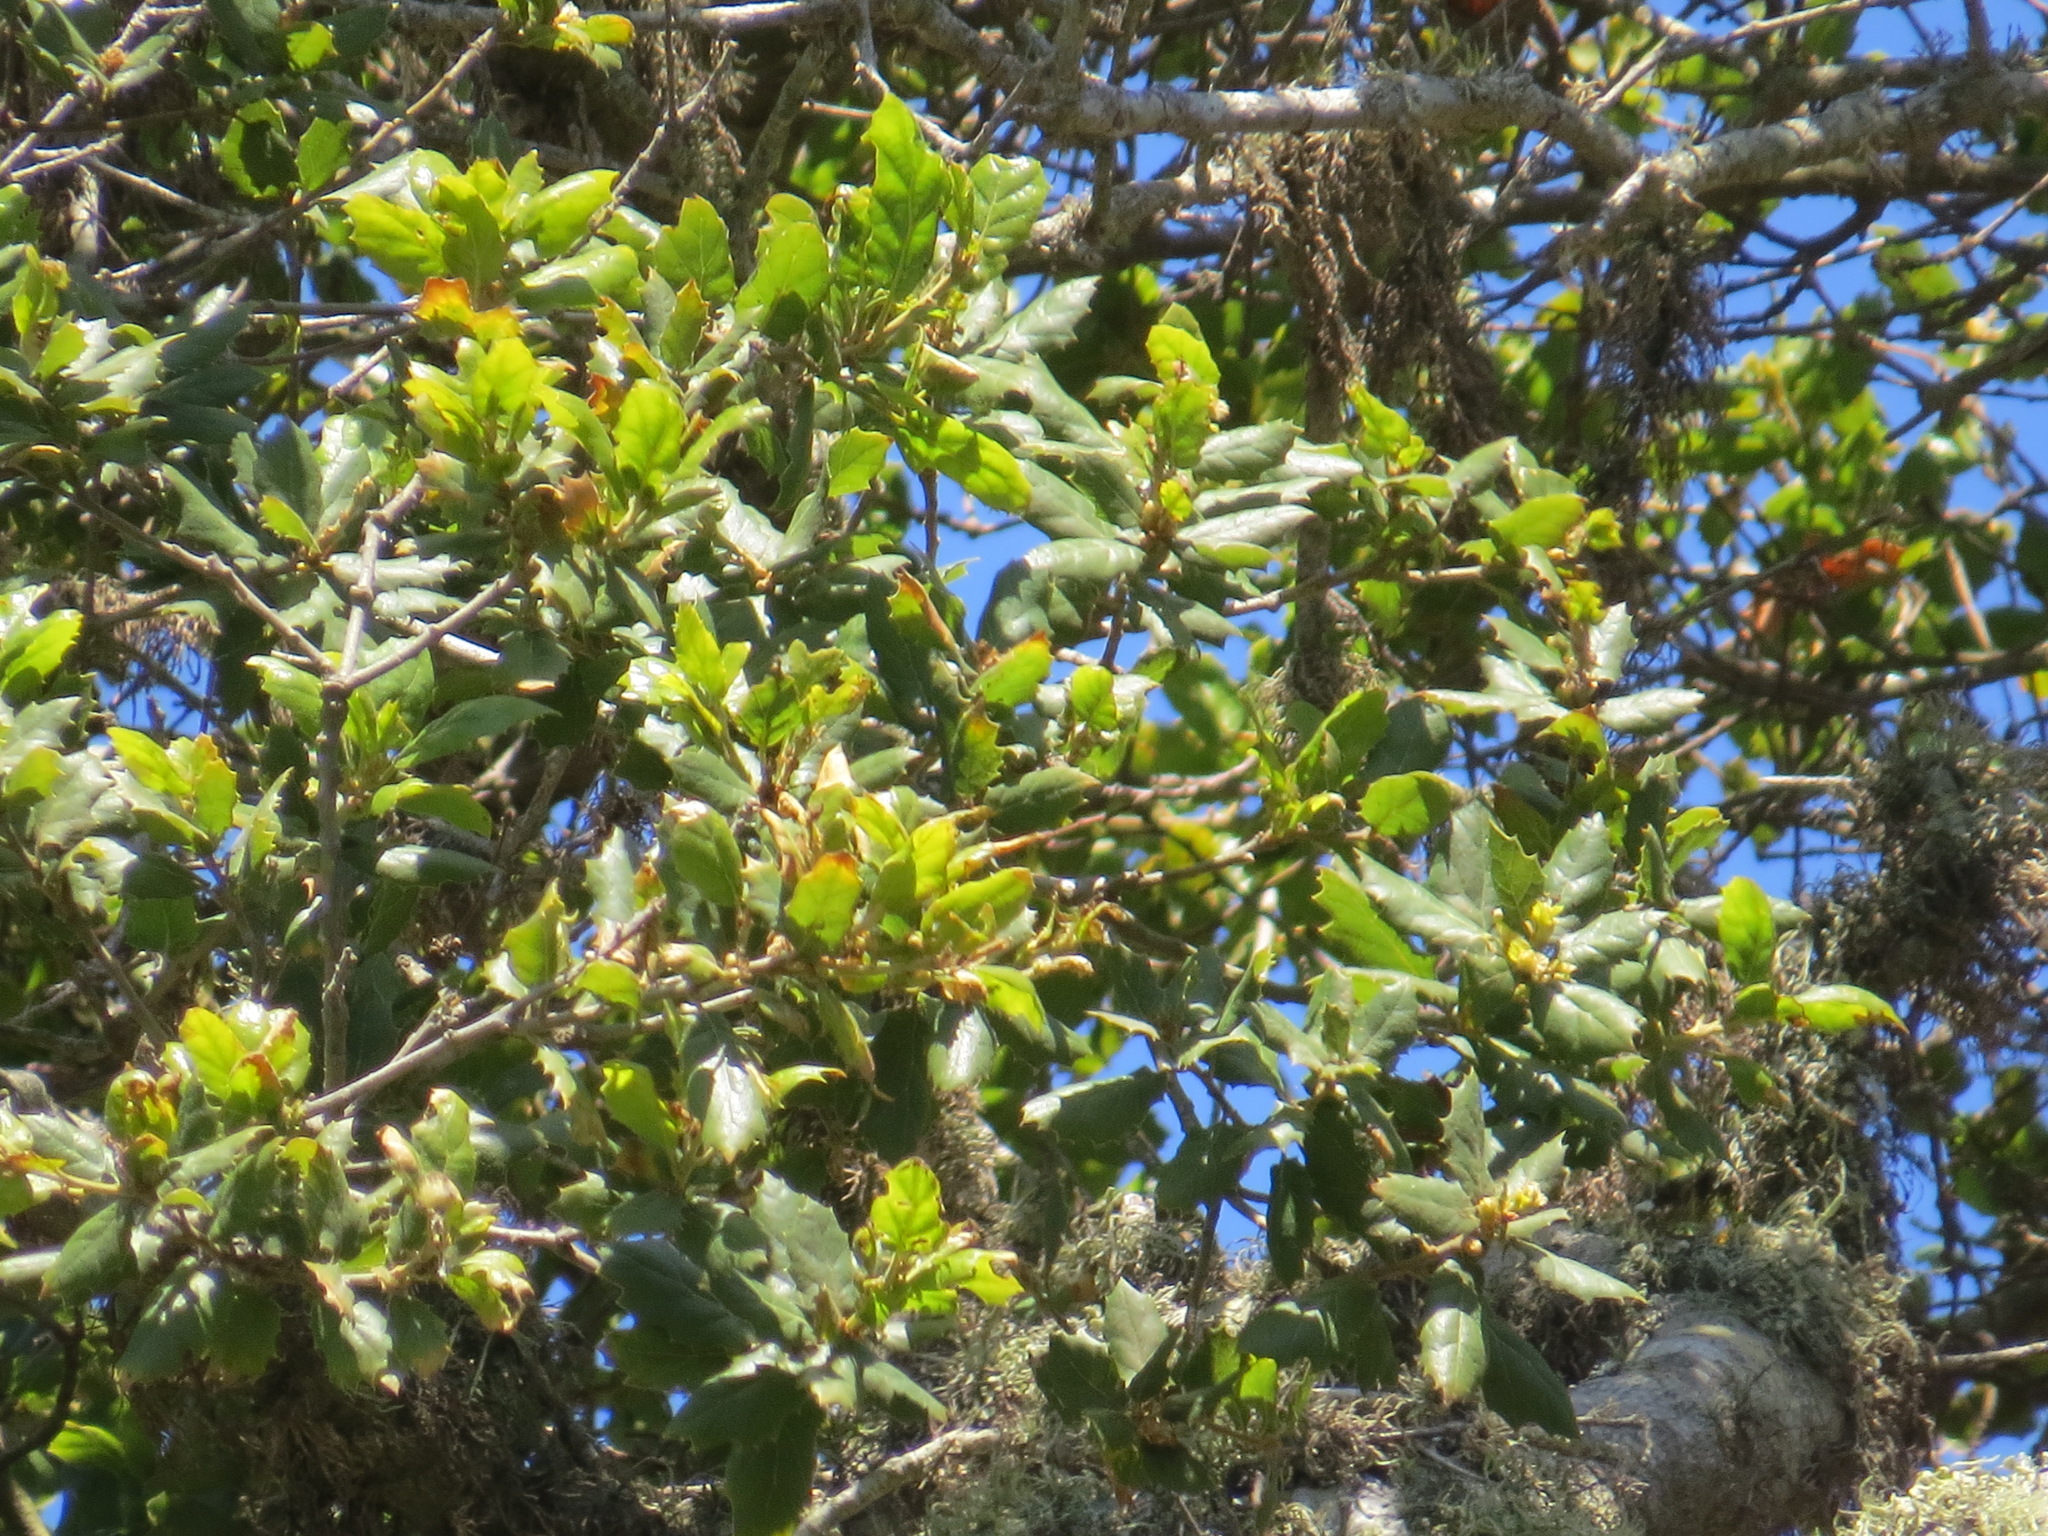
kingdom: Plantae
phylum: Tracheophyta
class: Magnoliopsida
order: Fagales
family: Fagaceae
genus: Quercus
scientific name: Quercus agrifolia
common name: California live oak
